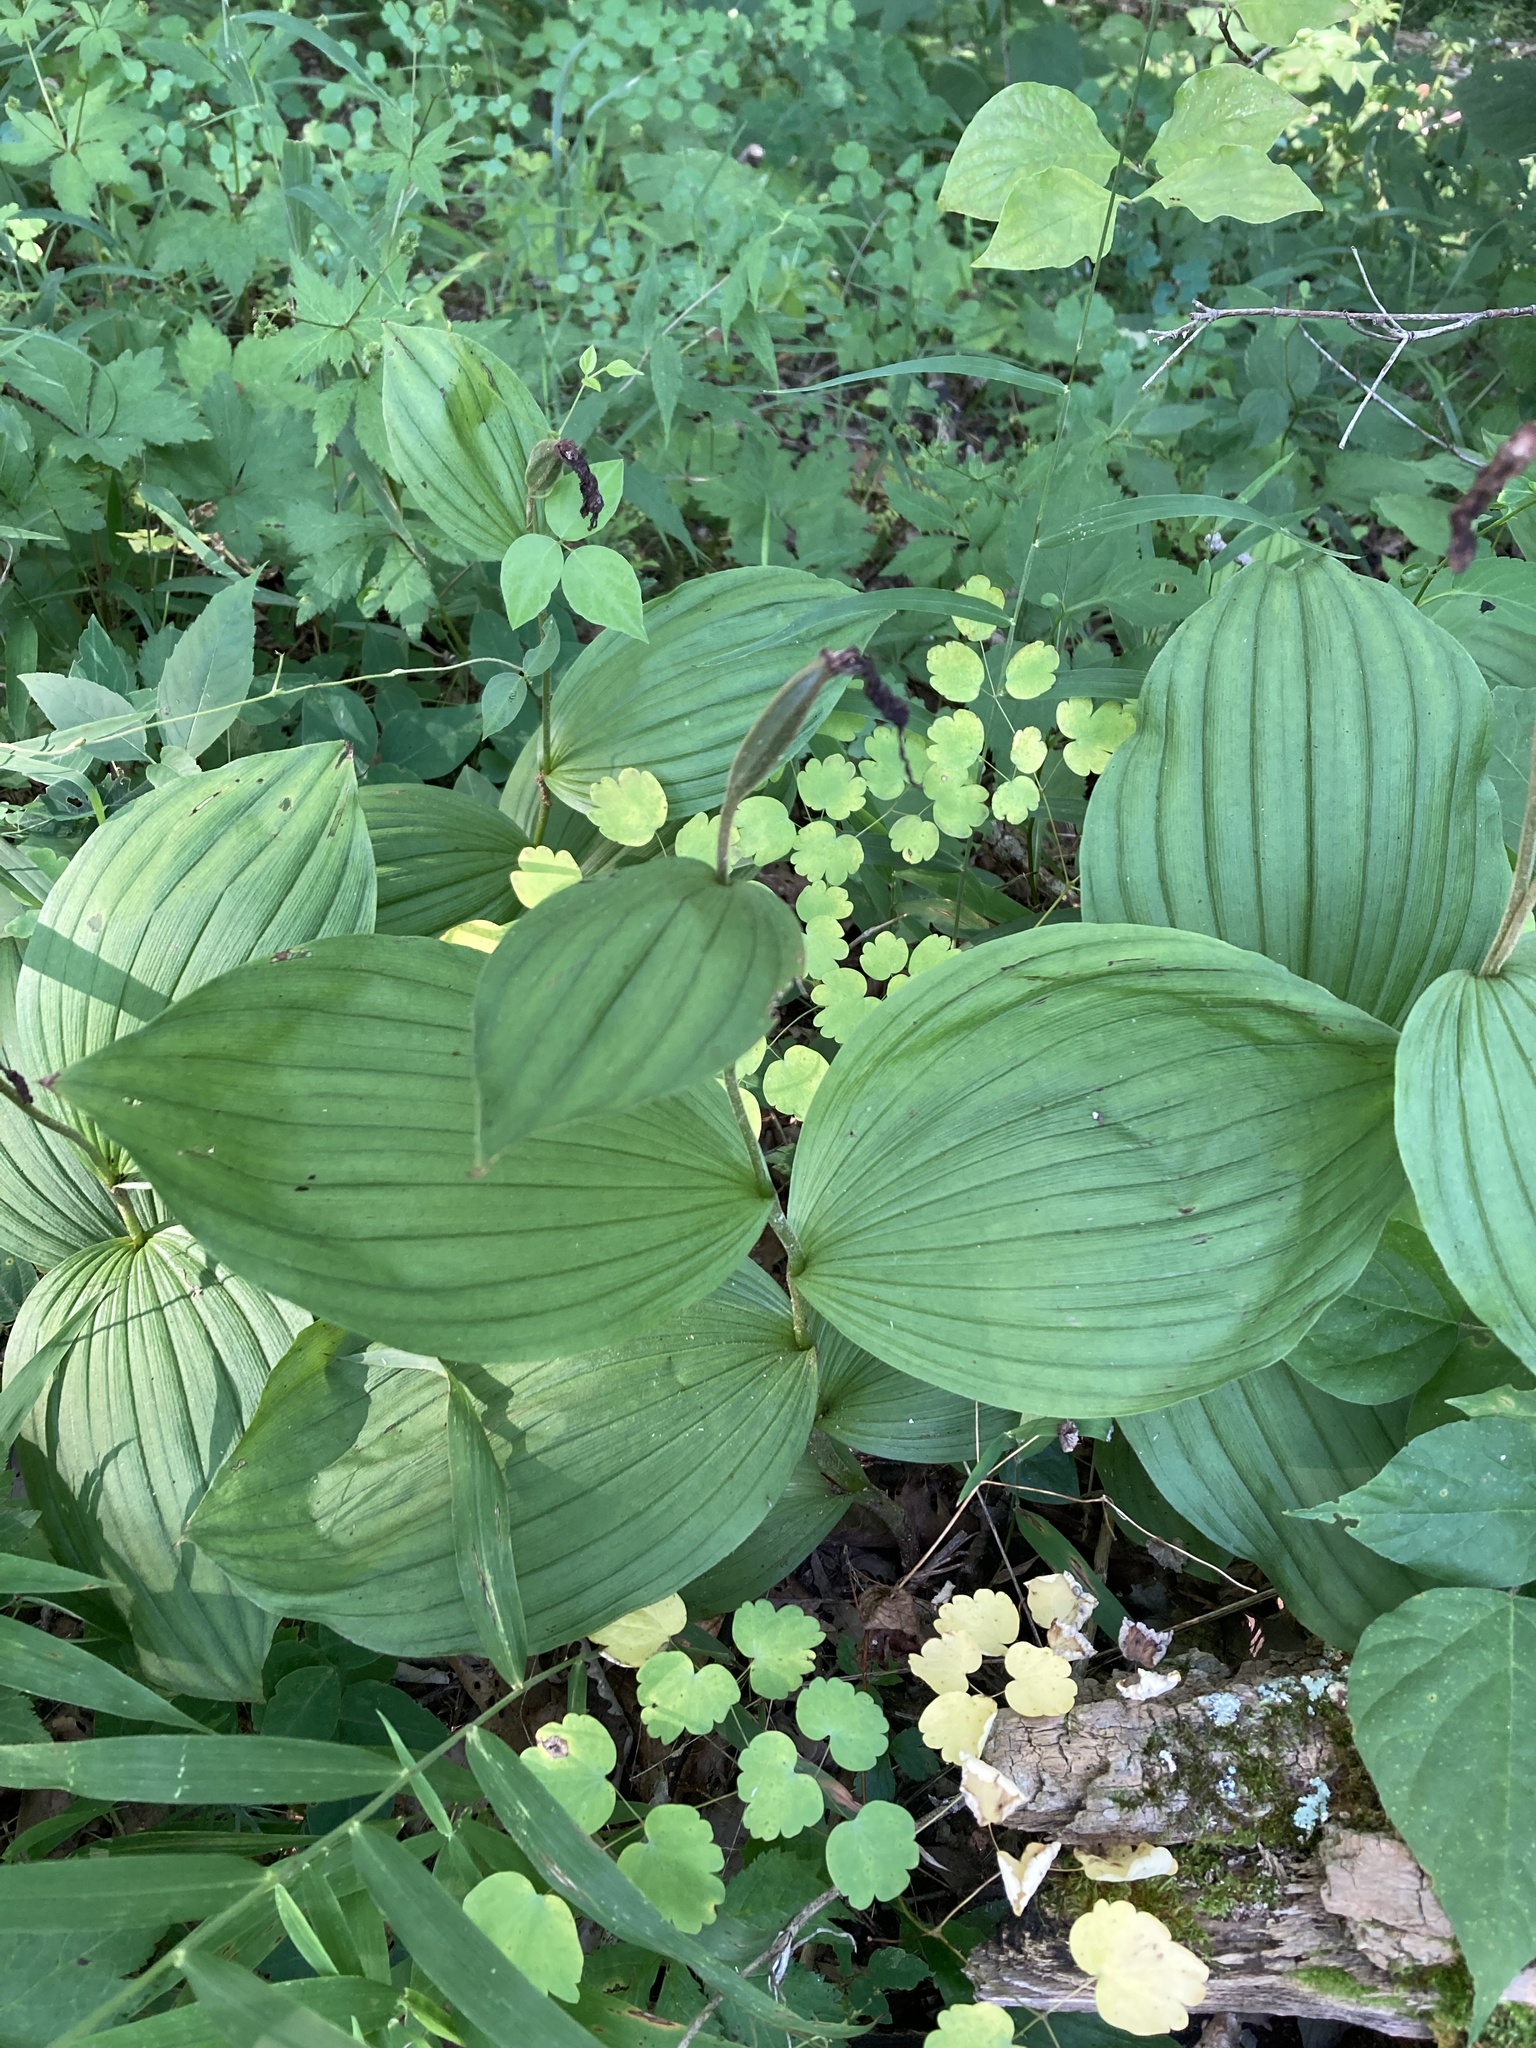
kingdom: Plantae
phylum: Tracheophyta
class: Liliopsida
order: Asparagales
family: Orchidaceae
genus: Cypripedium
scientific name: Cypripedium parviflorum
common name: American yellow lady's-slipper
